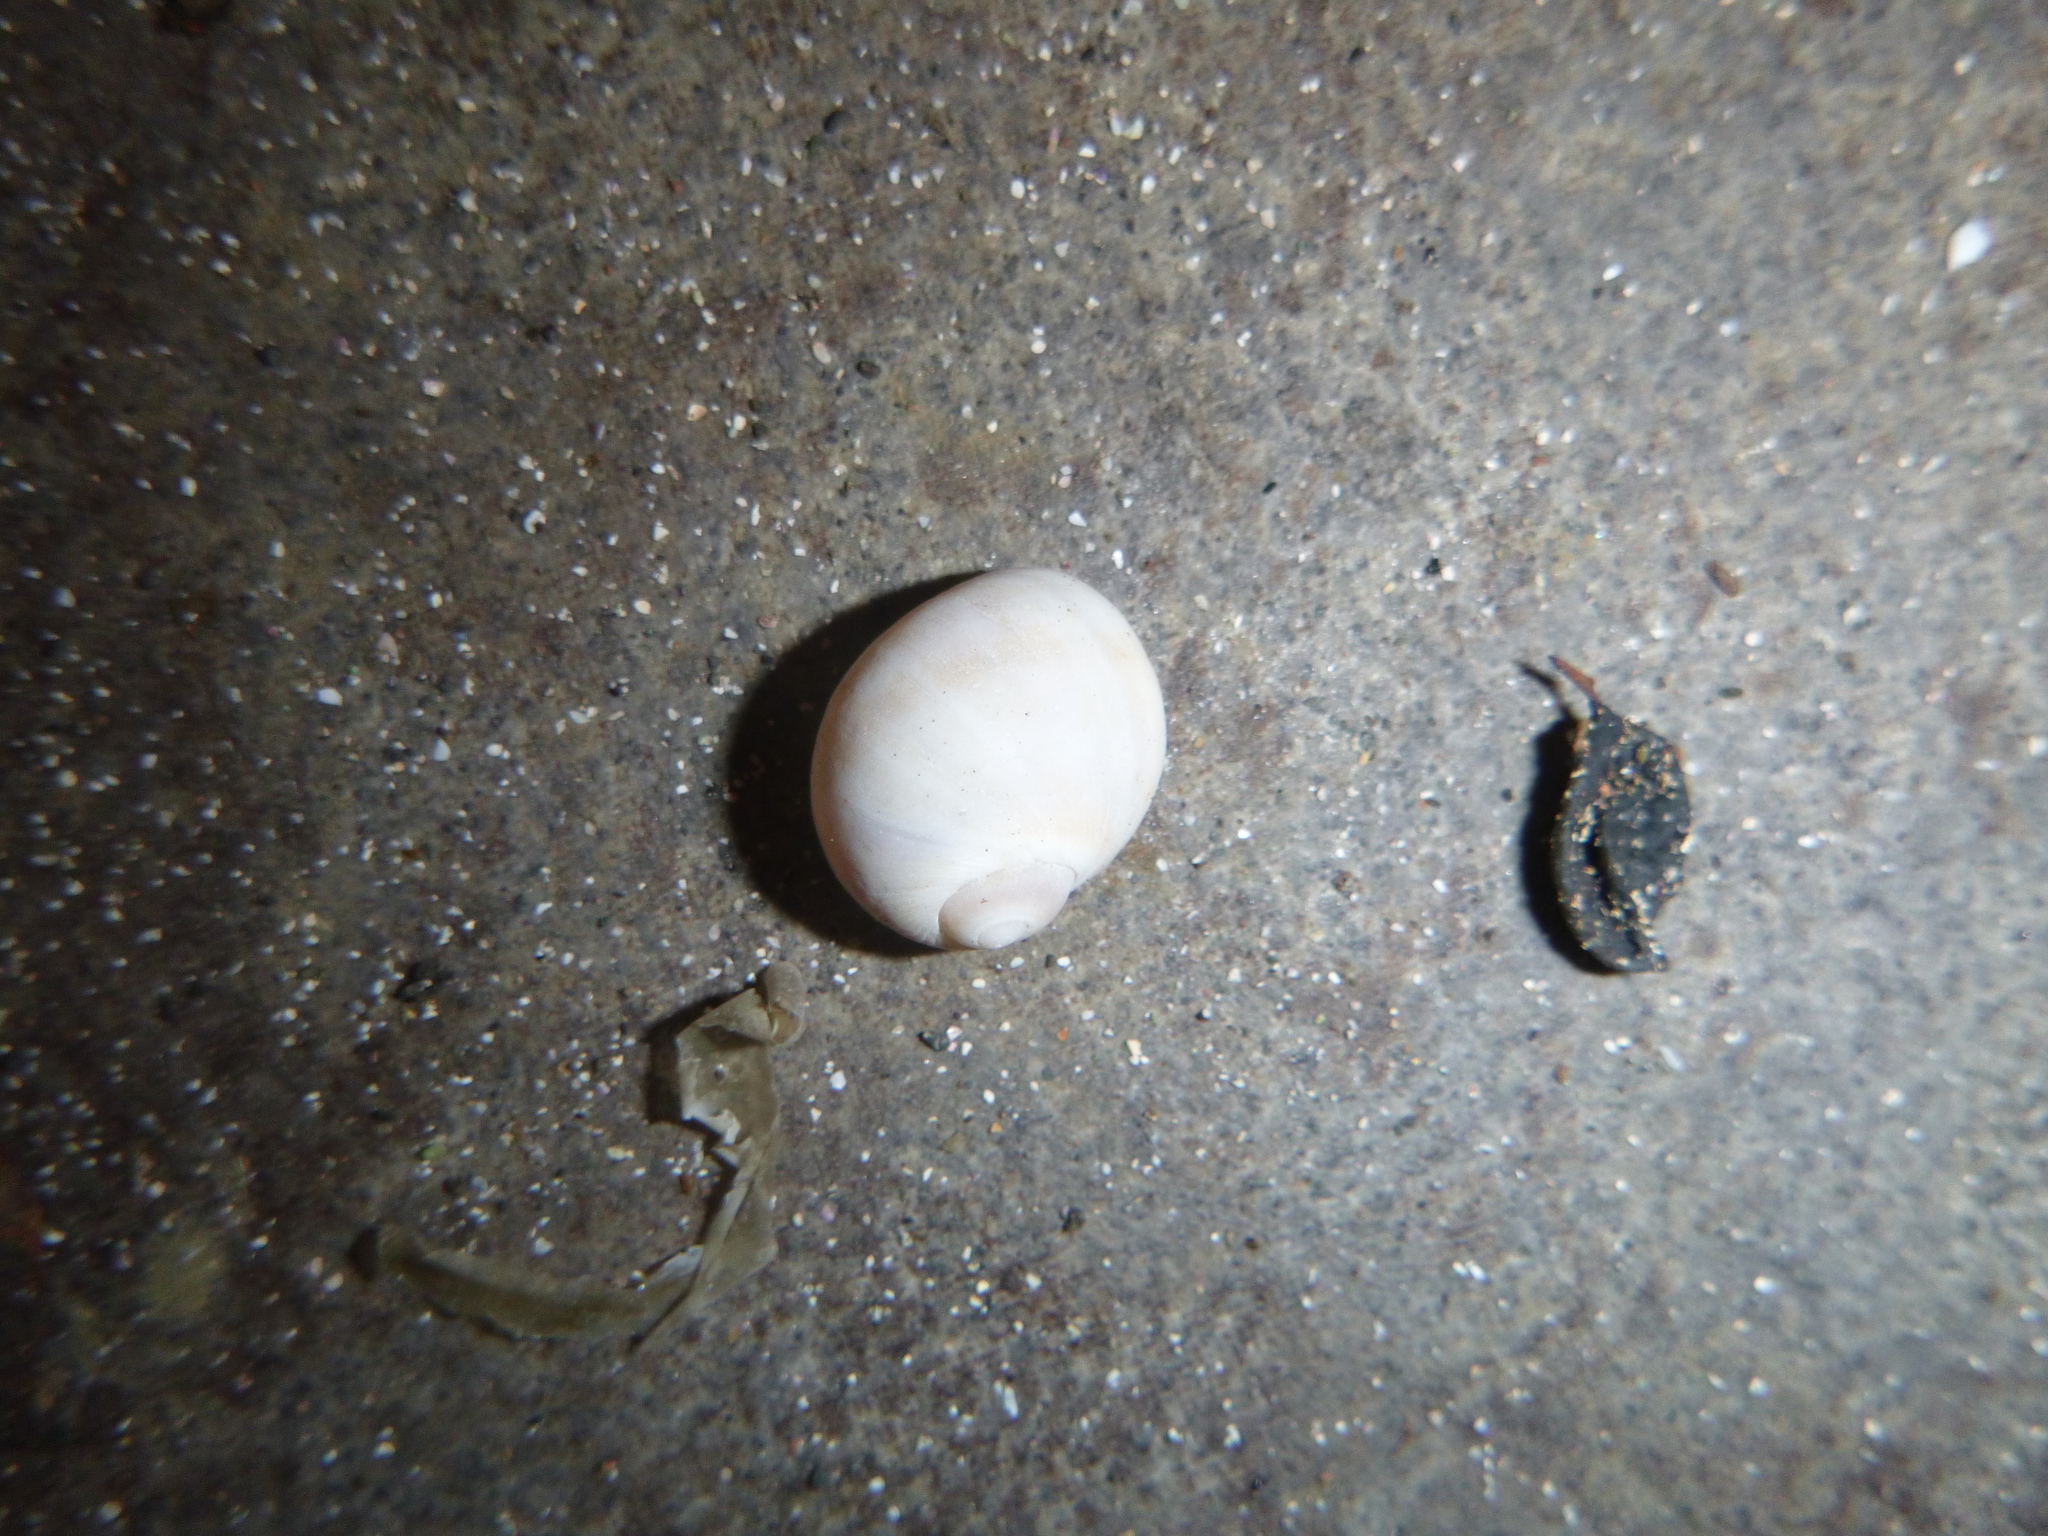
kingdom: Animalia
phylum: Mollusca
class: Gastropoda
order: Littorinimorpha
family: Naticidae
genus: Notocochlis
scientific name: Notocochlis gualteriana
